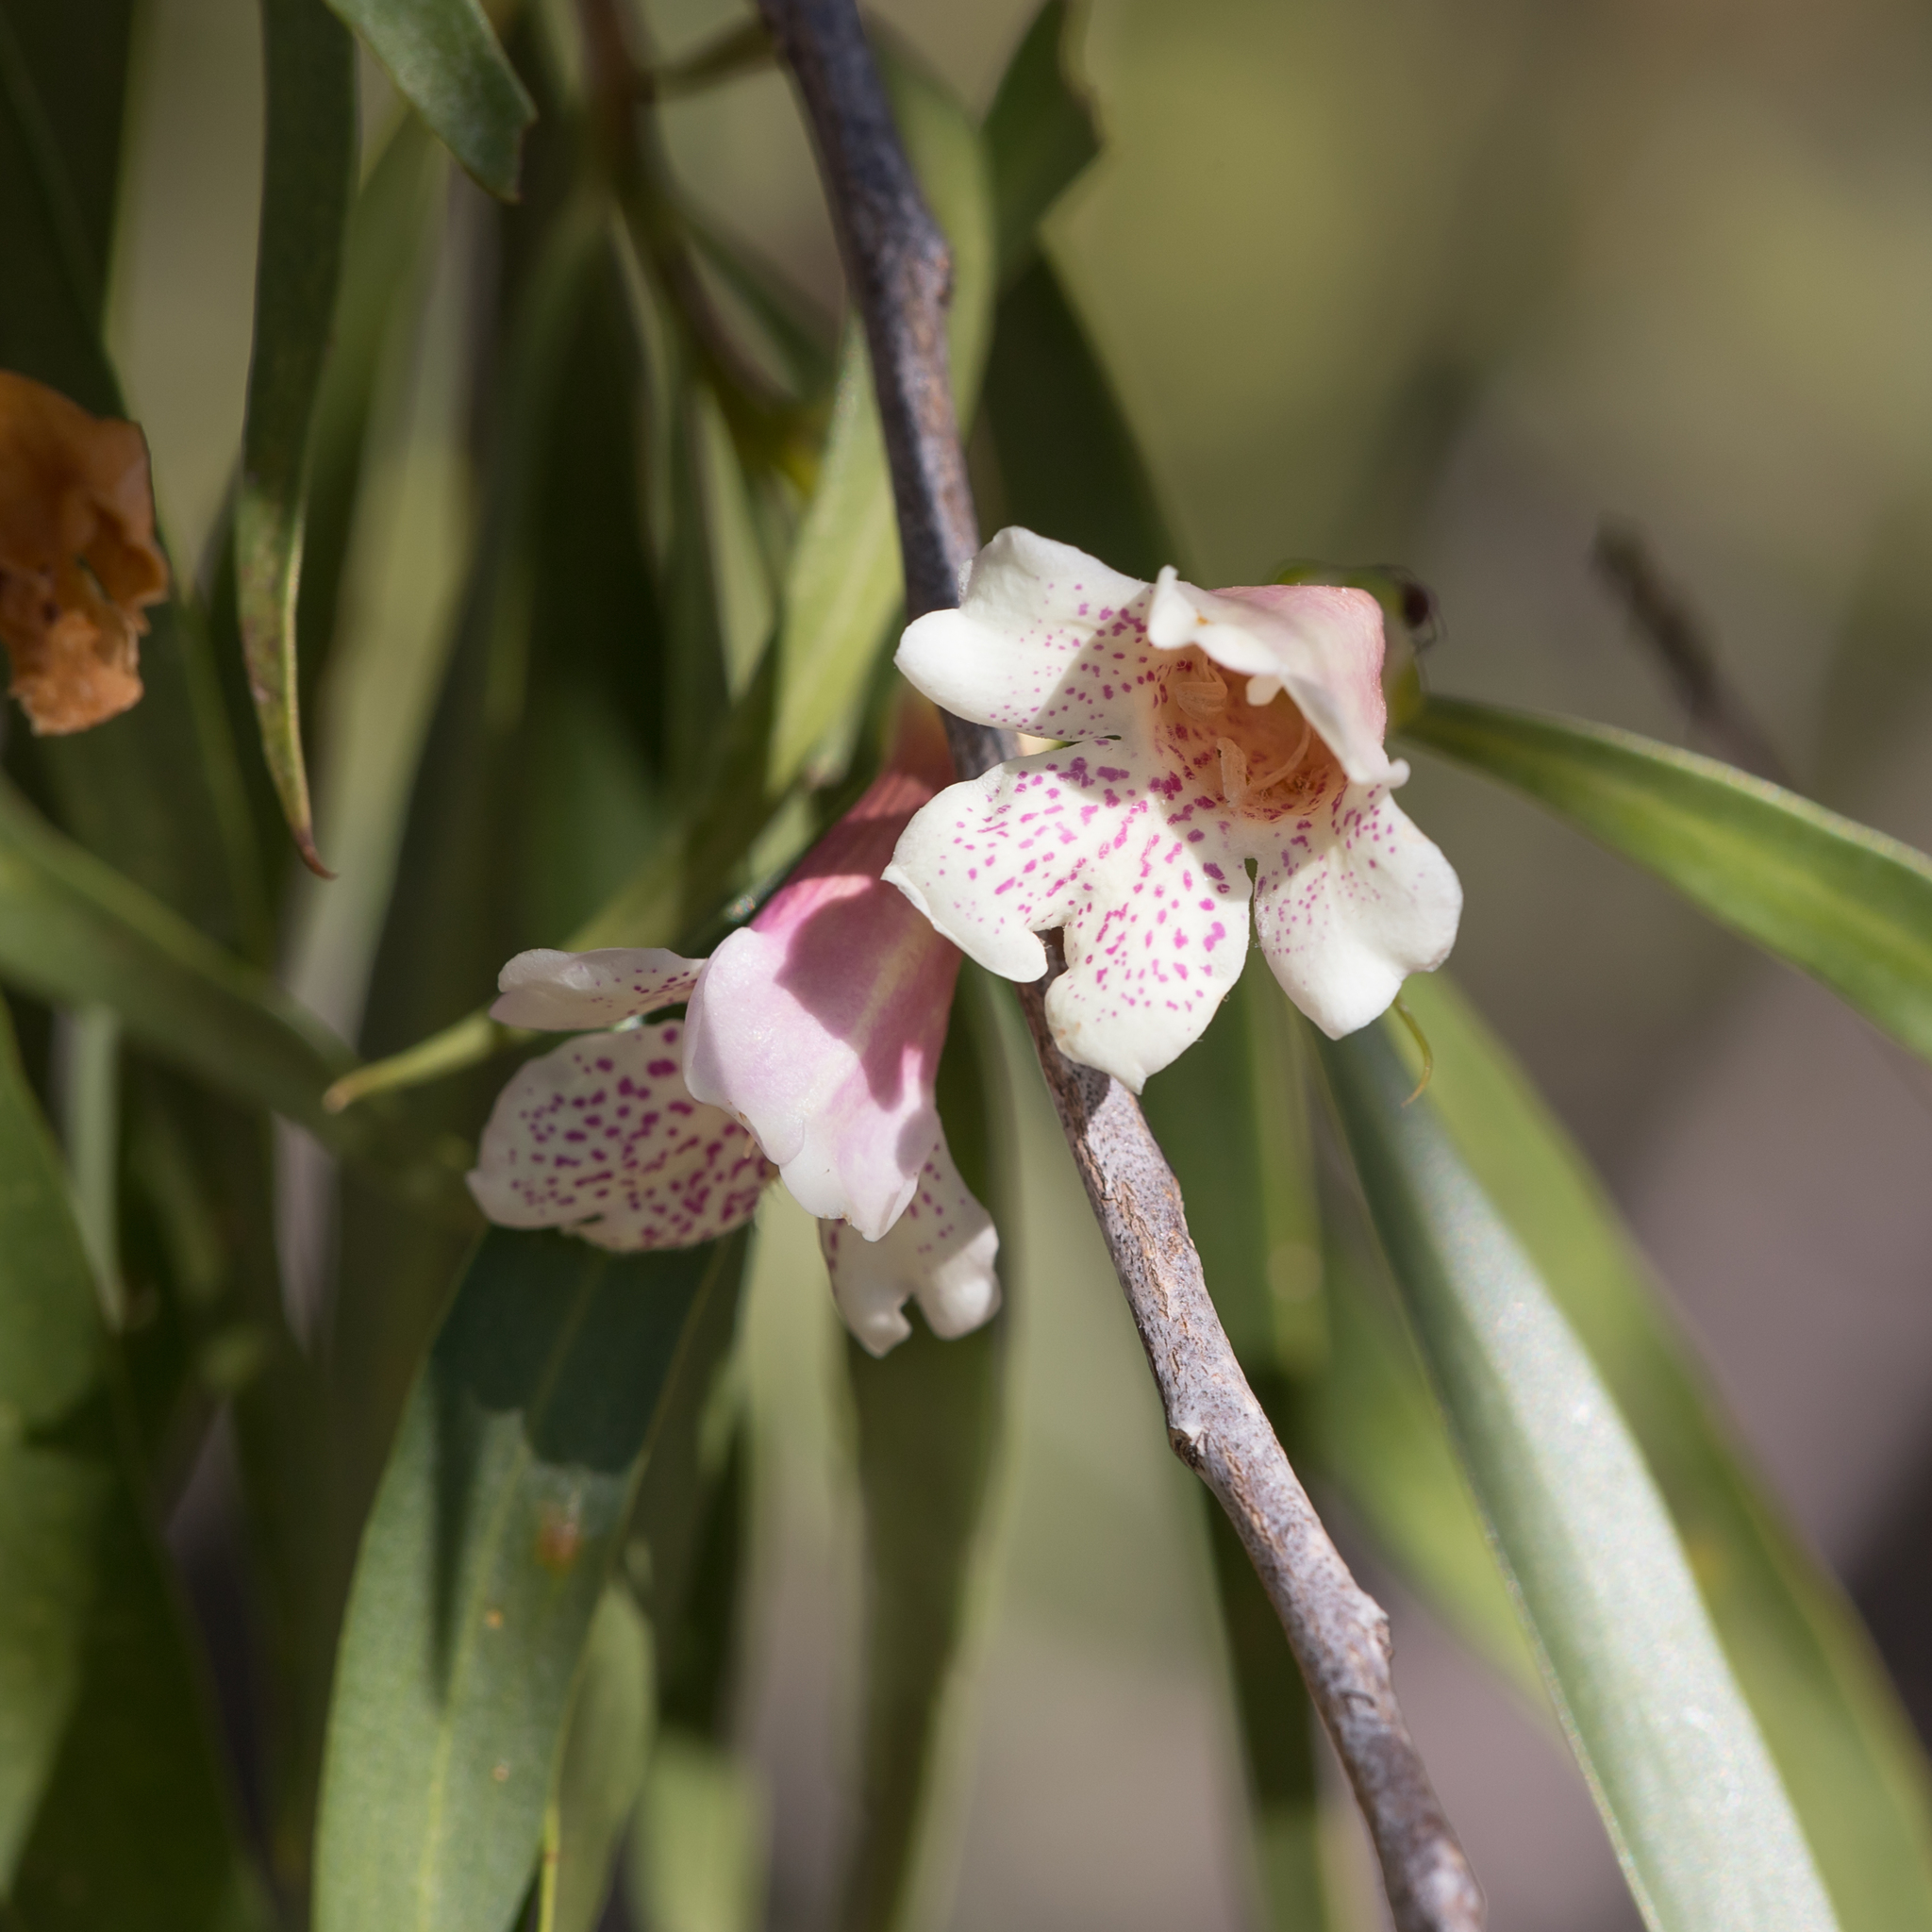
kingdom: Plantae
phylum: Tracheophyta
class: Magnoliopsida
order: Lamiales
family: Scrophulariaceae
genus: Eremophila
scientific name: Eremophila bignoniiflora
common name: Bignonia emu-bush
